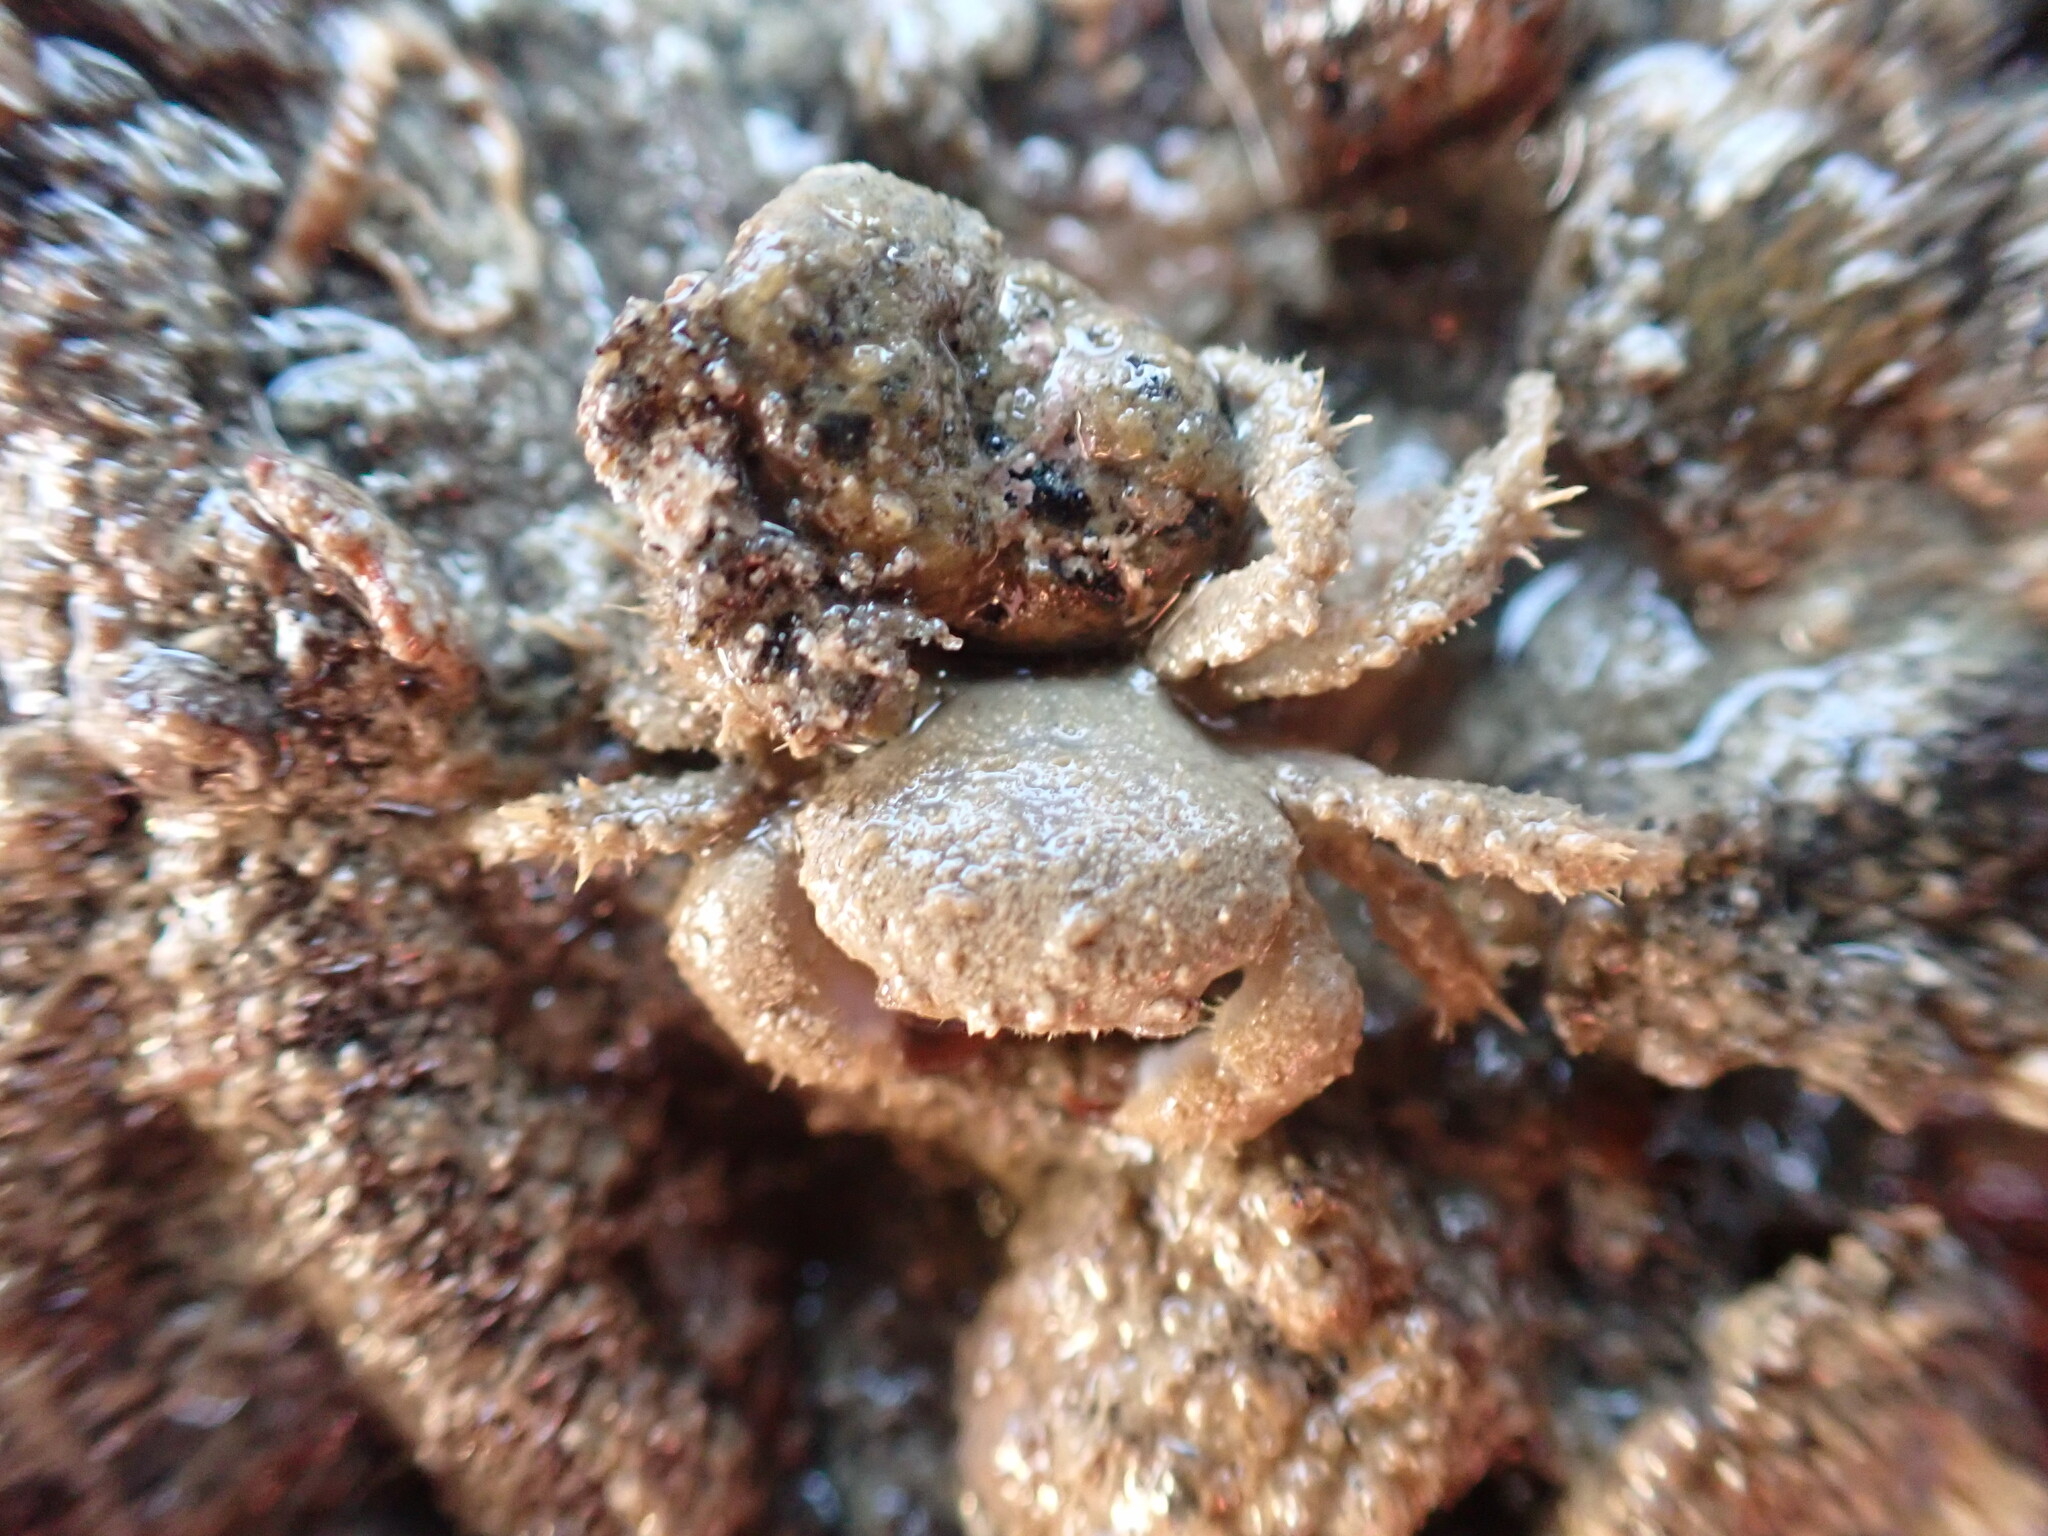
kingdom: Animalia
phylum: Arthropoda
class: Malacostraca
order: Decapoda
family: Pilumnidae
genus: Pilumnus
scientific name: Pilumnus lumpinus
